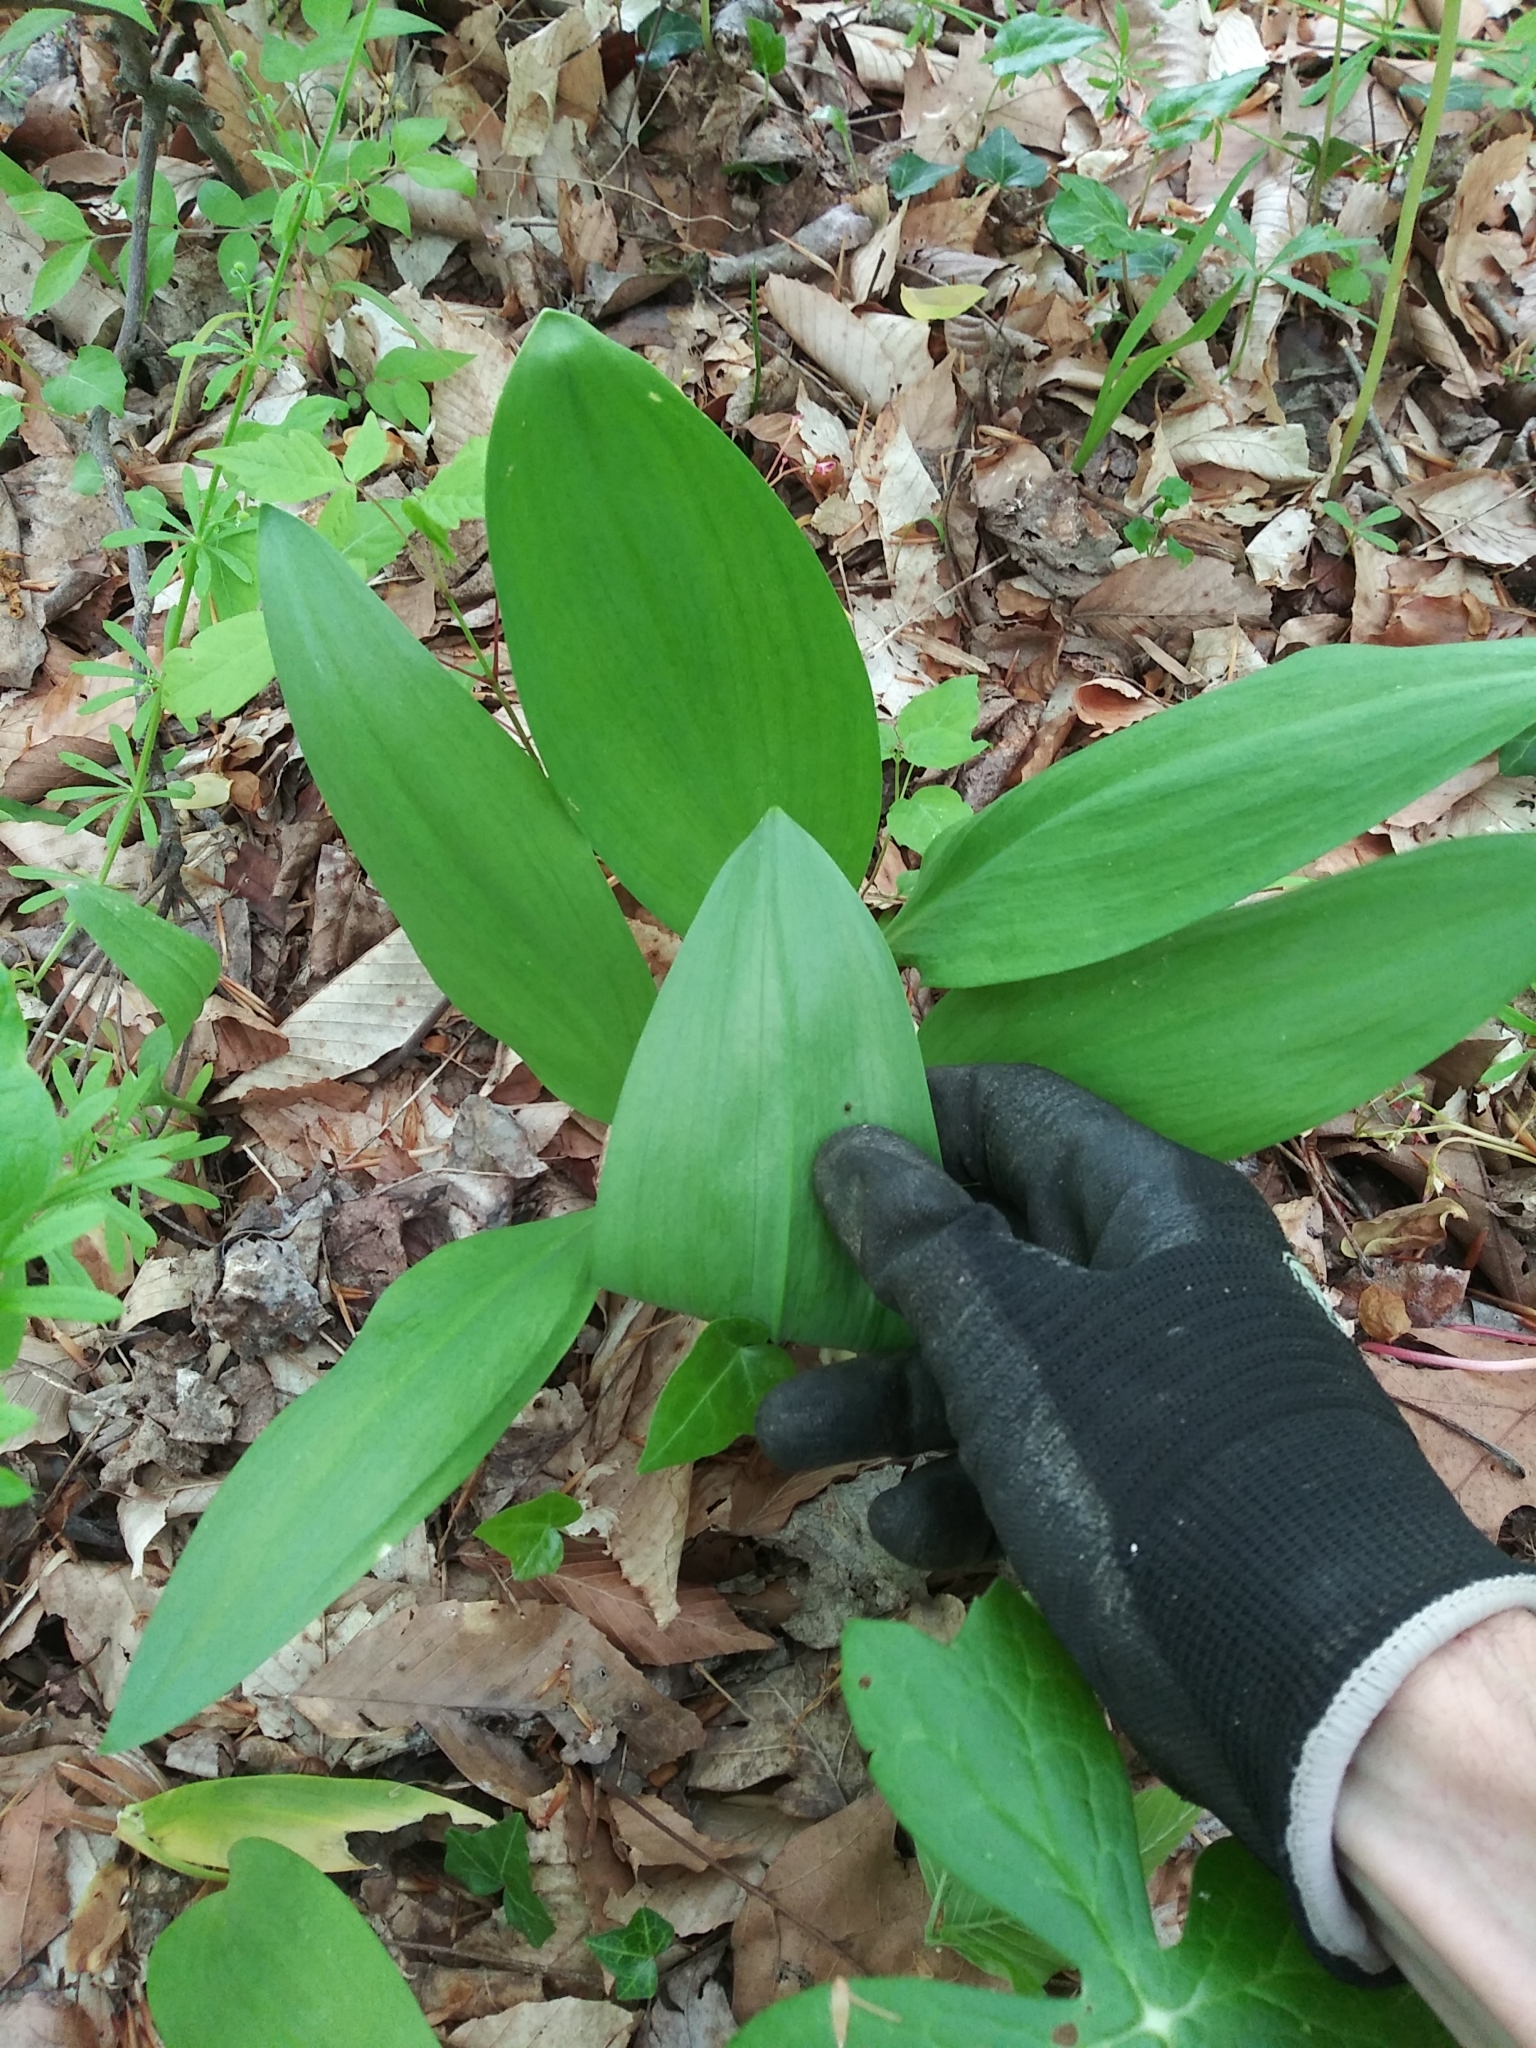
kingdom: Plantae
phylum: Tracheophyta
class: Liliopsida
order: Asparagales
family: Amaryllidaceae
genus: Allium
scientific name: Allium tricoccum
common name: Ramp
